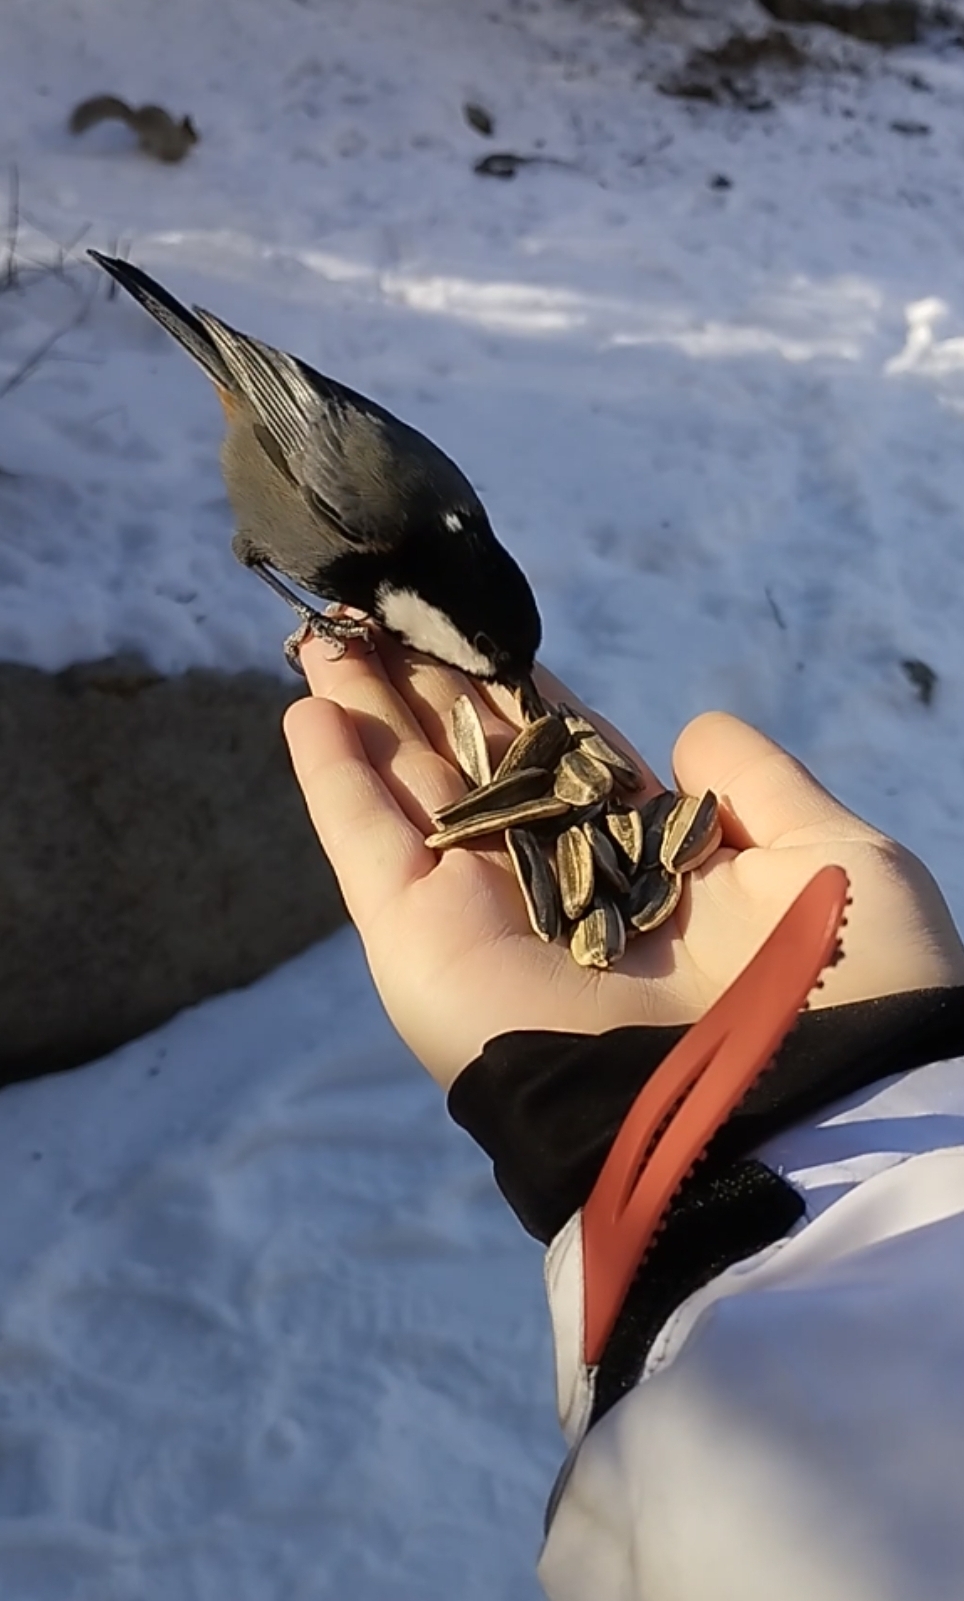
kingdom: Animalia
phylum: Chordata
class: Aves
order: Passeriformes
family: Paridae
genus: Periparus
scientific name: Periparus rufonuchalis
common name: Rufous-naped tit
